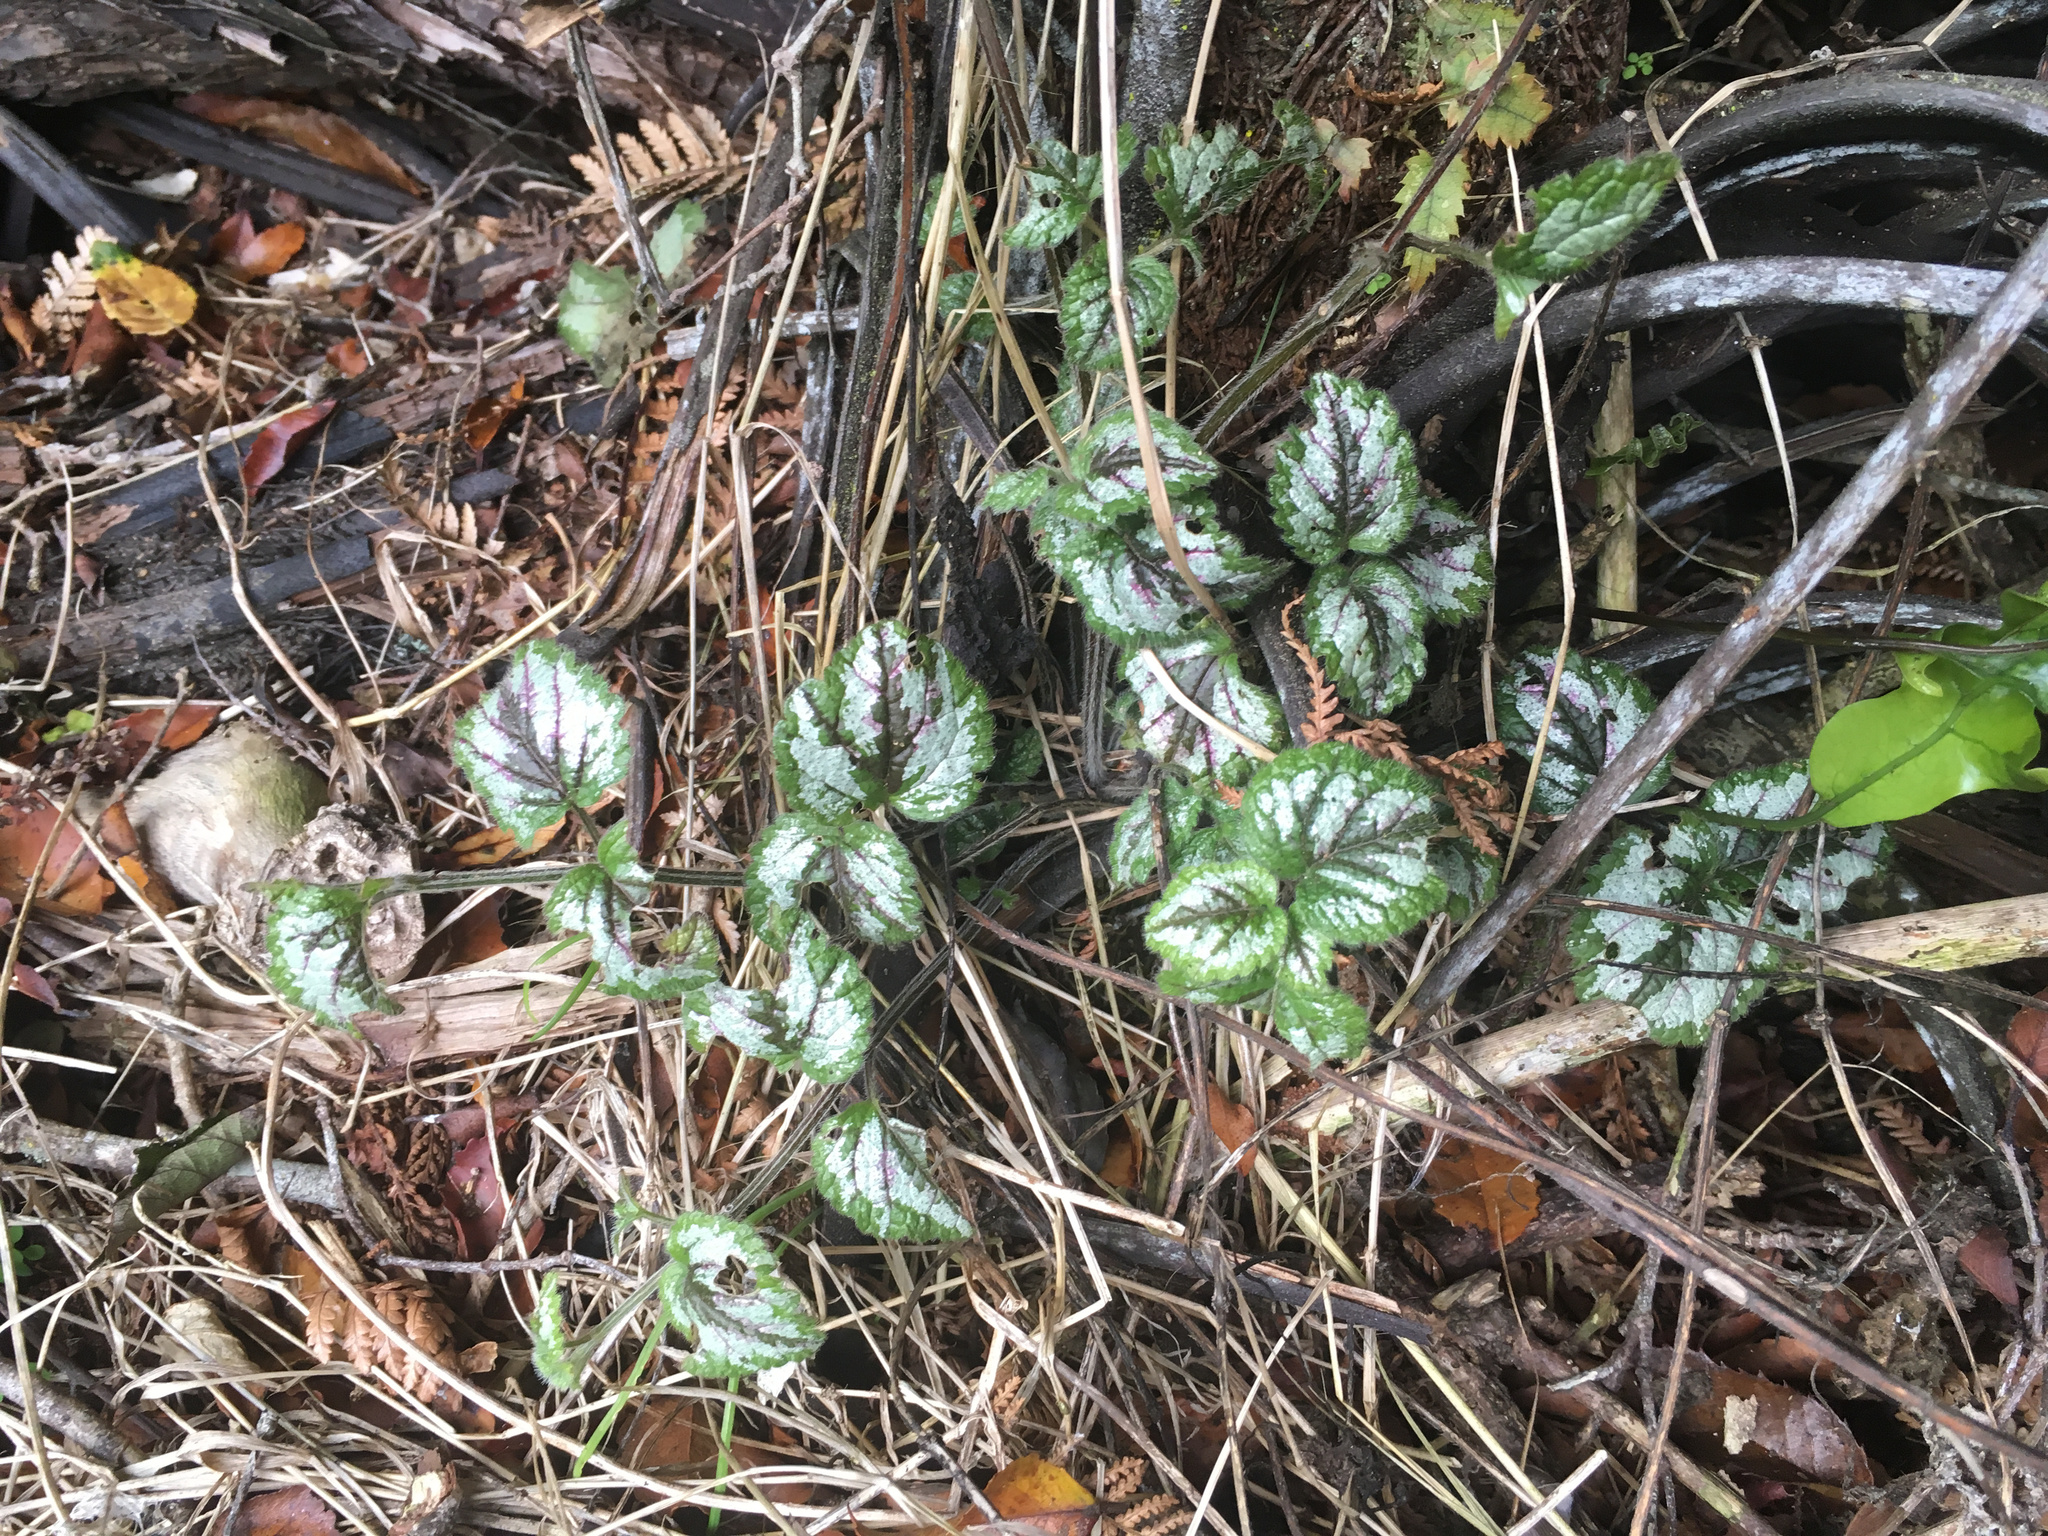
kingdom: Plantae
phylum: Tracheophyta
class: Magnoliopsida
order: Lamiales
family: Lamiaceae
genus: Lamium
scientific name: Lamium galeobdolon
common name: Yellow archangel
